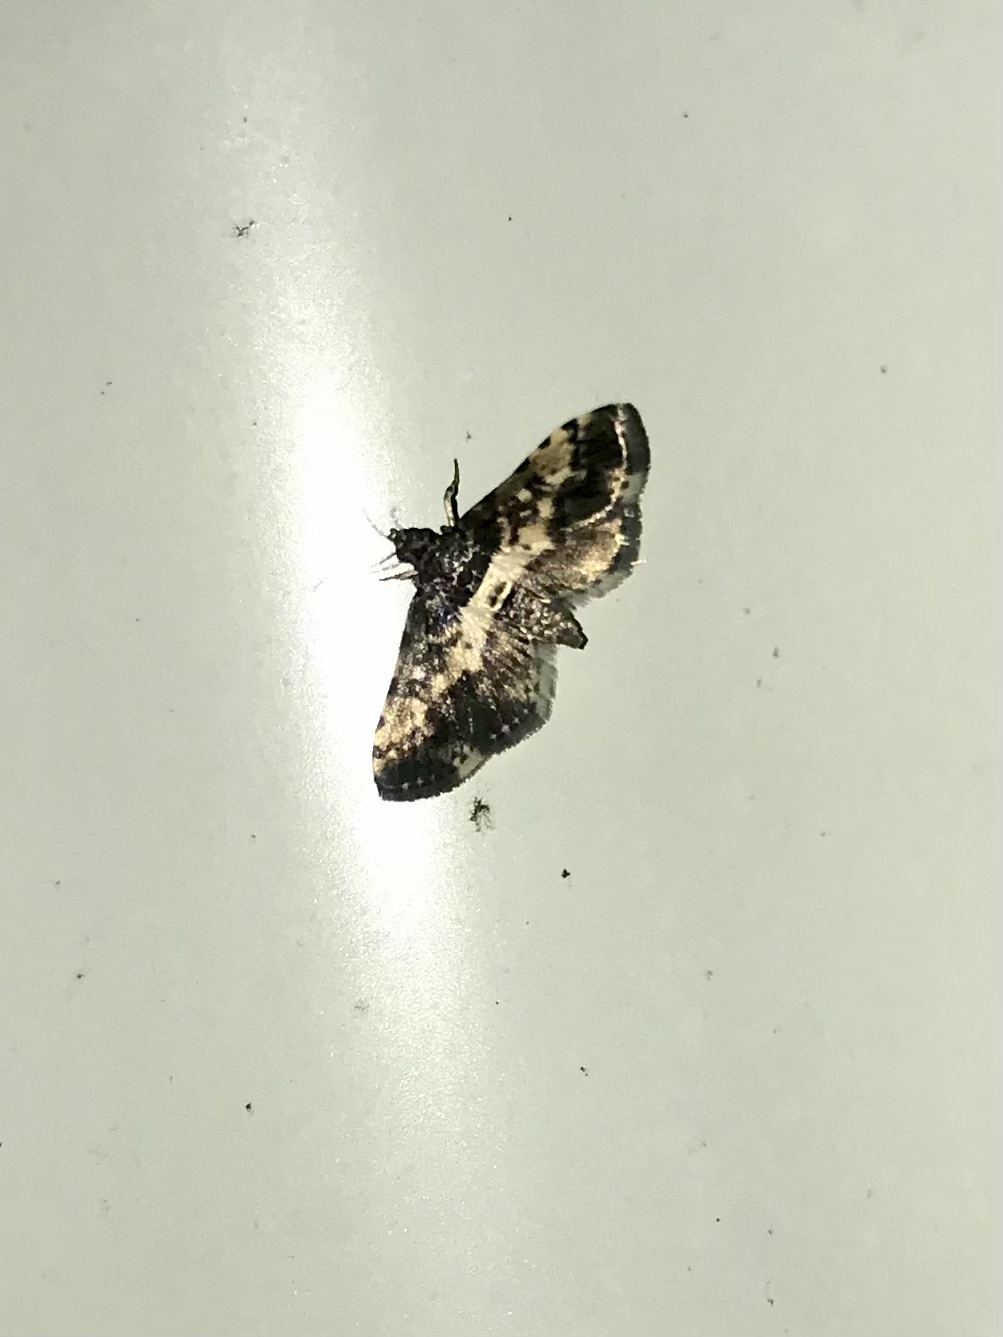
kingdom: Animalia
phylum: Arthropoda
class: Insecta
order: Lepidoptera
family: Crambidae
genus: Nacoleia
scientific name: Nacoleia amphicedalis
